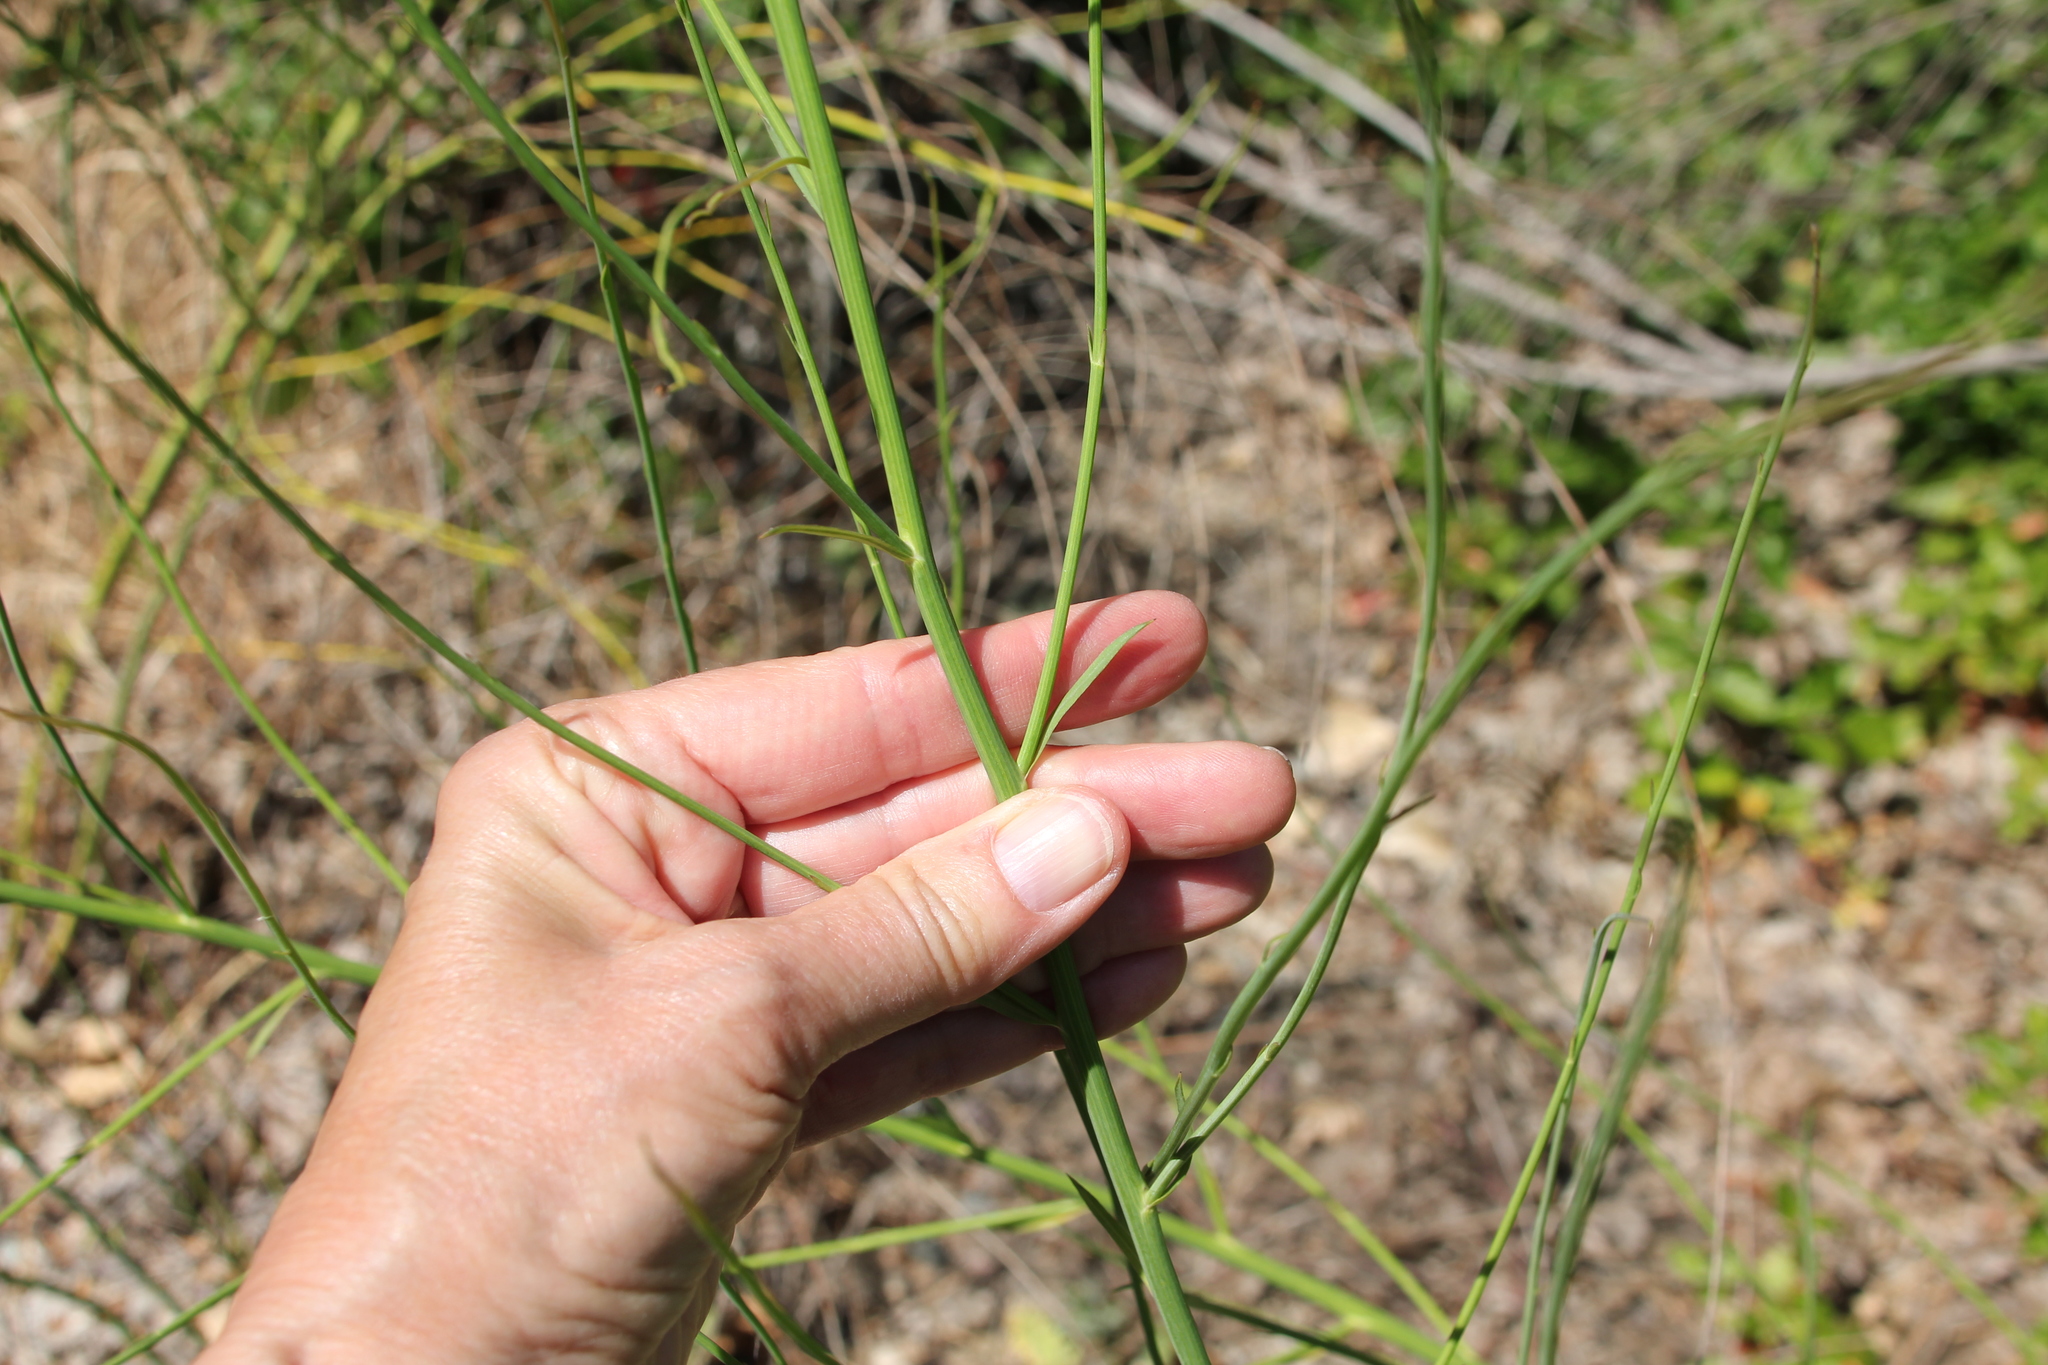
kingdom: Plantae
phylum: Tracheophyta
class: Magnoliopsida
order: Asterales
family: Asteraceae
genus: Chloracantha
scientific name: Chloracantha spinosa
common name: Mexican devilweed
